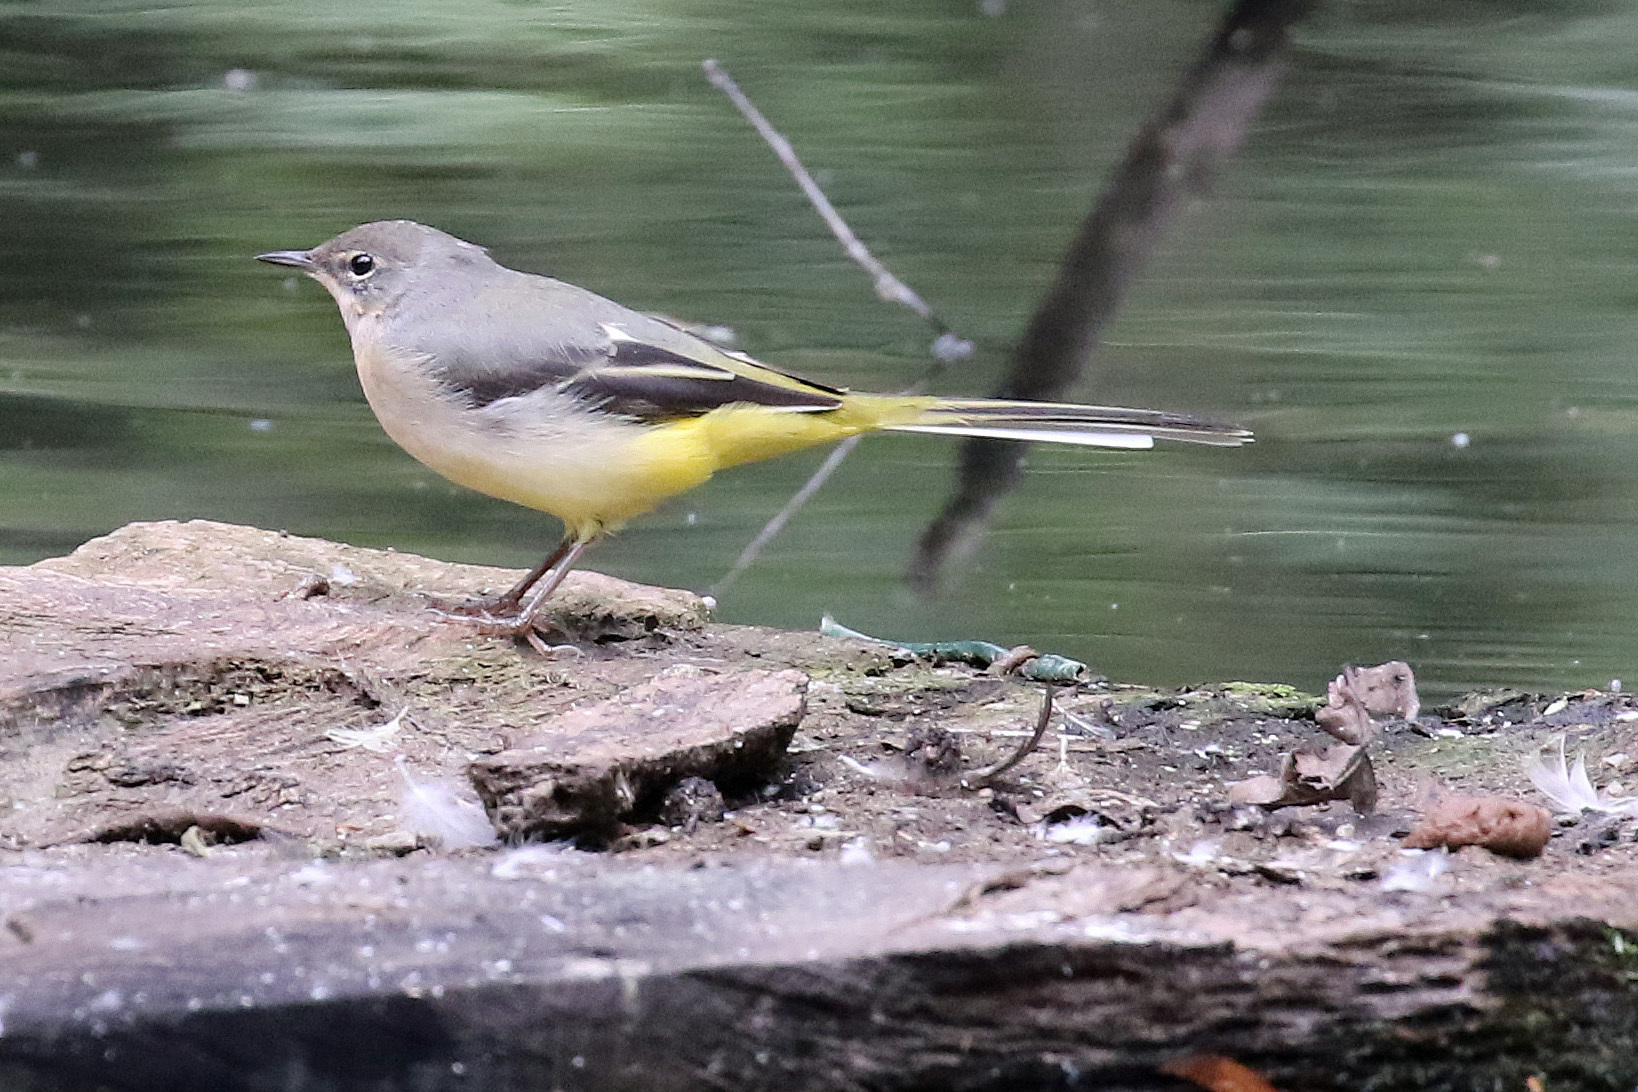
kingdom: Animalia
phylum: Chordata
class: Aves
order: Passeriformes
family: Motacillidae
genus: Motacilla
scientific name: Motacilla cinerea
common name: Grey wagtail
